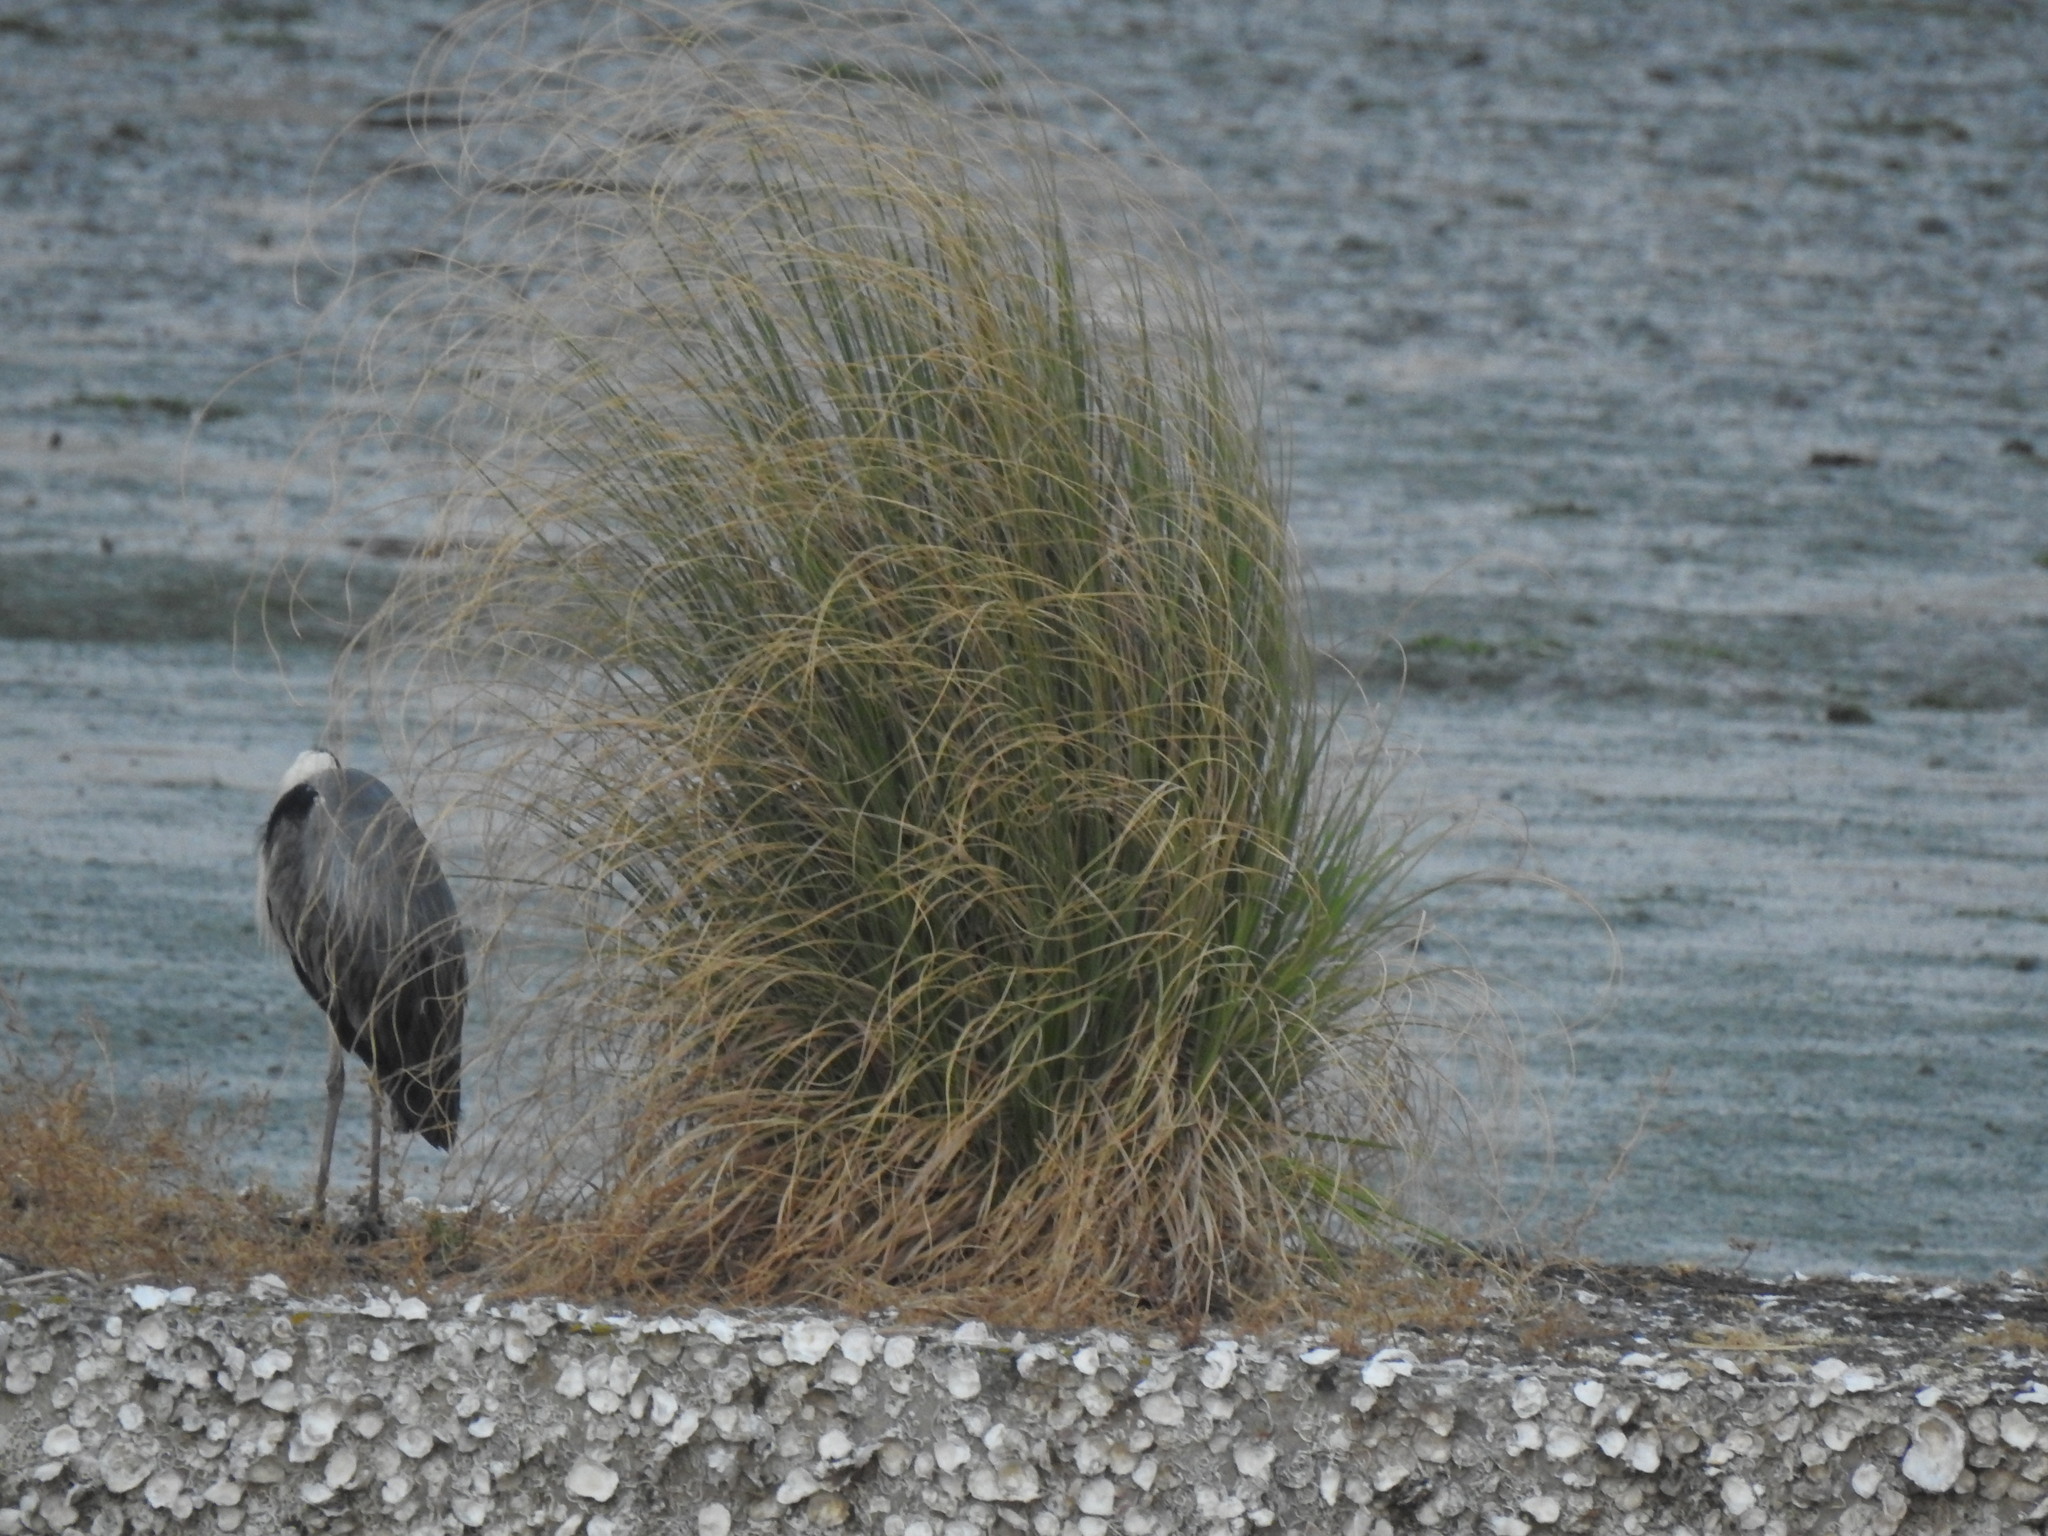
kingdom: Plantae
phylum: Tracheophyta
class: Liliopsida
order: Poales
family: Poaceae
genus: Cortaderia
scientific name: Cortaderia selloana
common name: Uruguayan pampas grass
